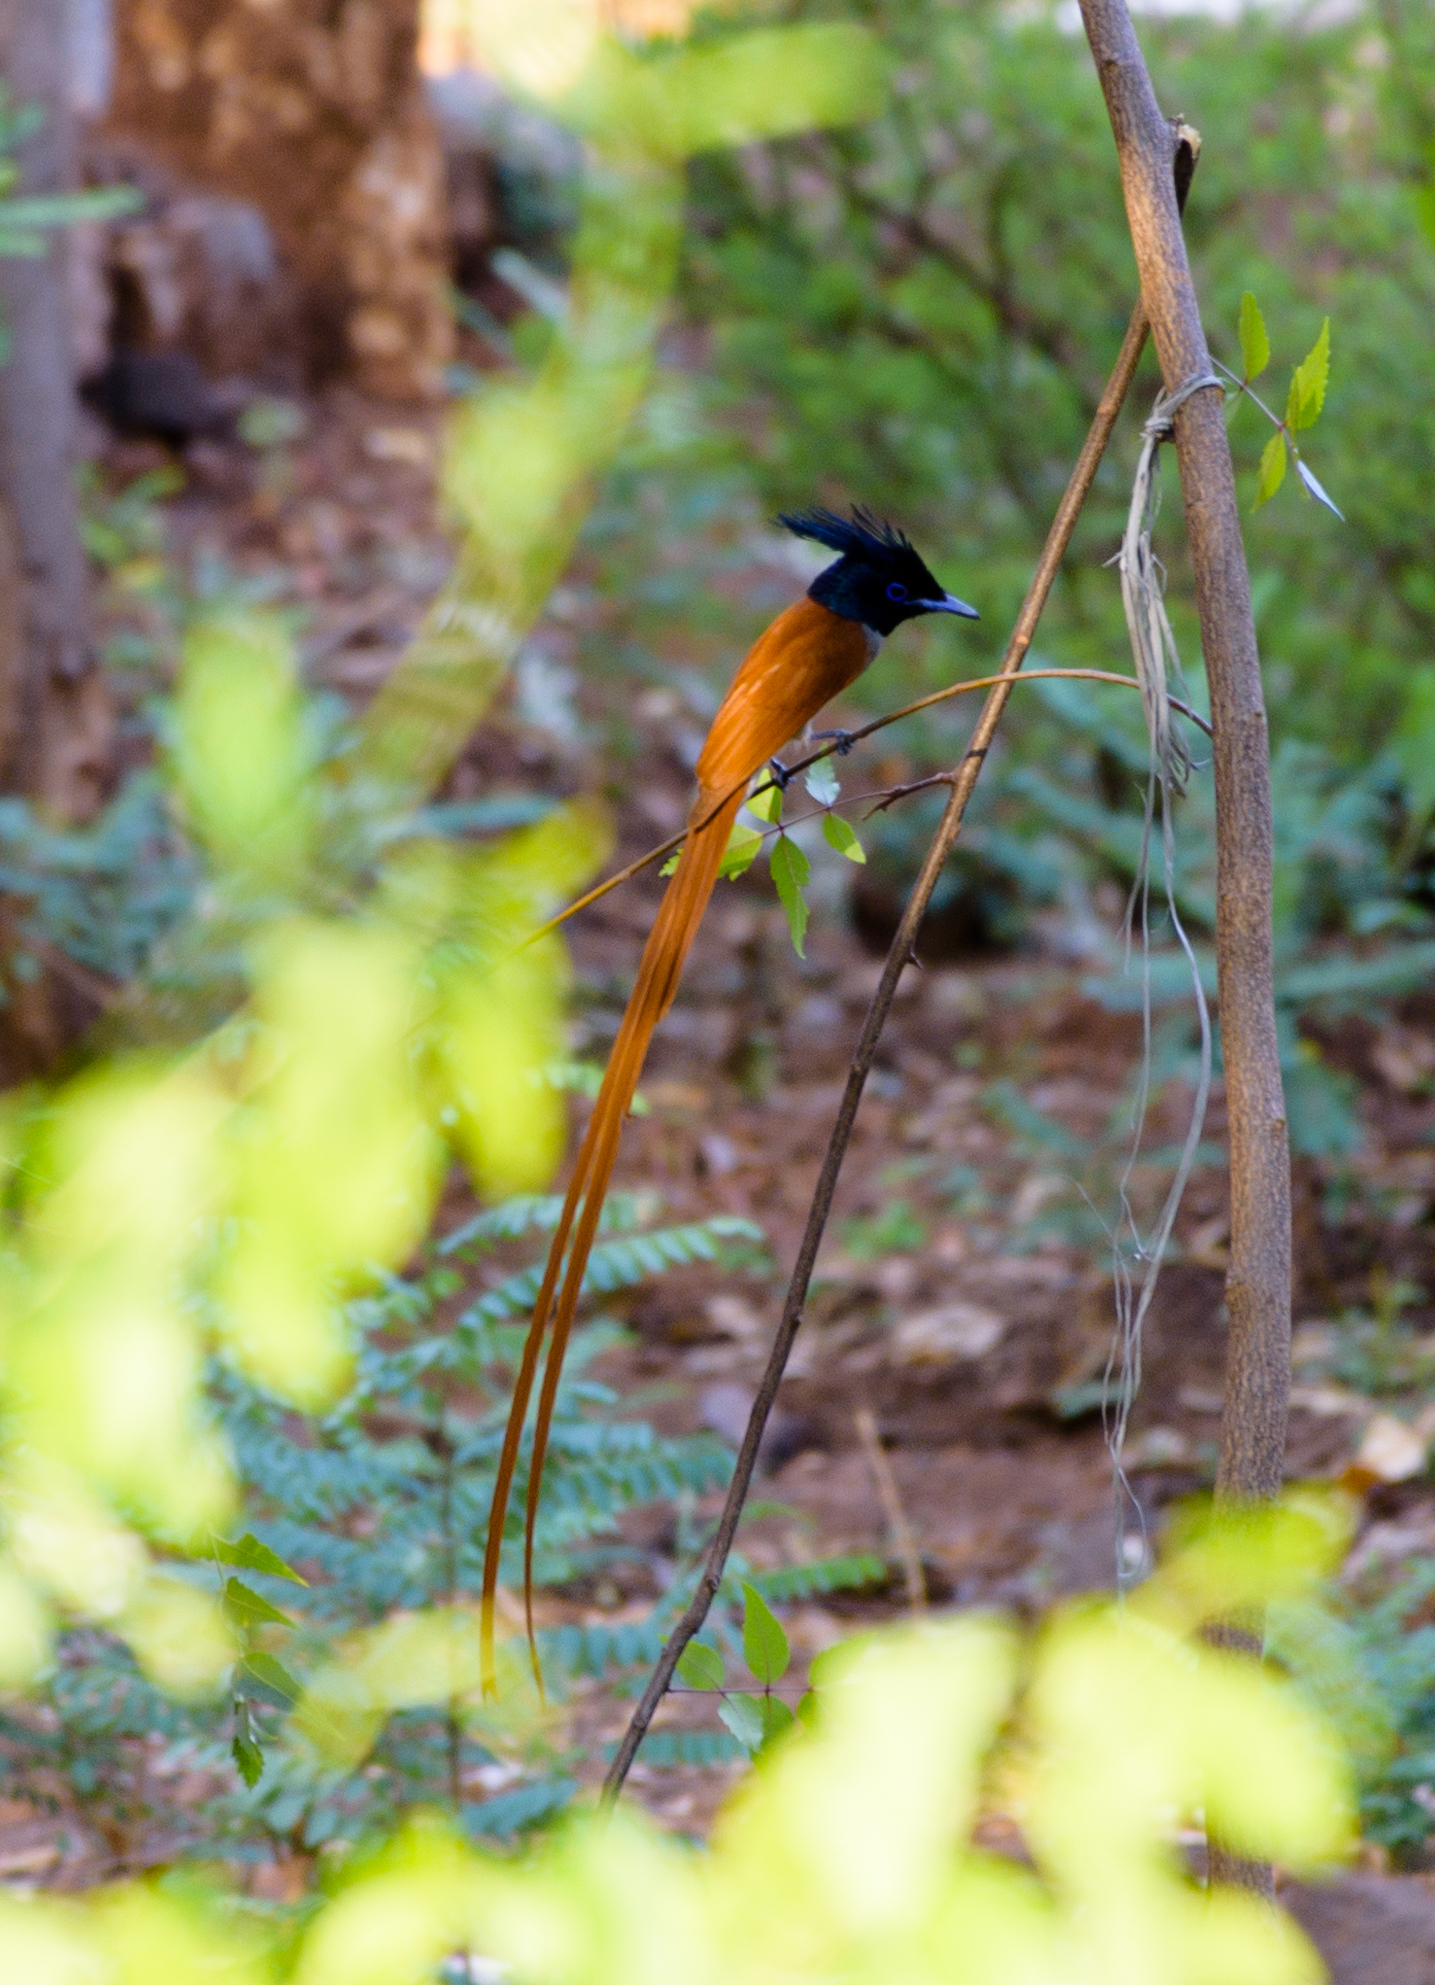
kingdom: Animalia
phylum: Chordata
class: Aves
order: Passeriformes
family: Monarchidae
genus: Terpsiphone
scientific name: Terpsiphone paradisi
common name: Indian paradise flycatcher
